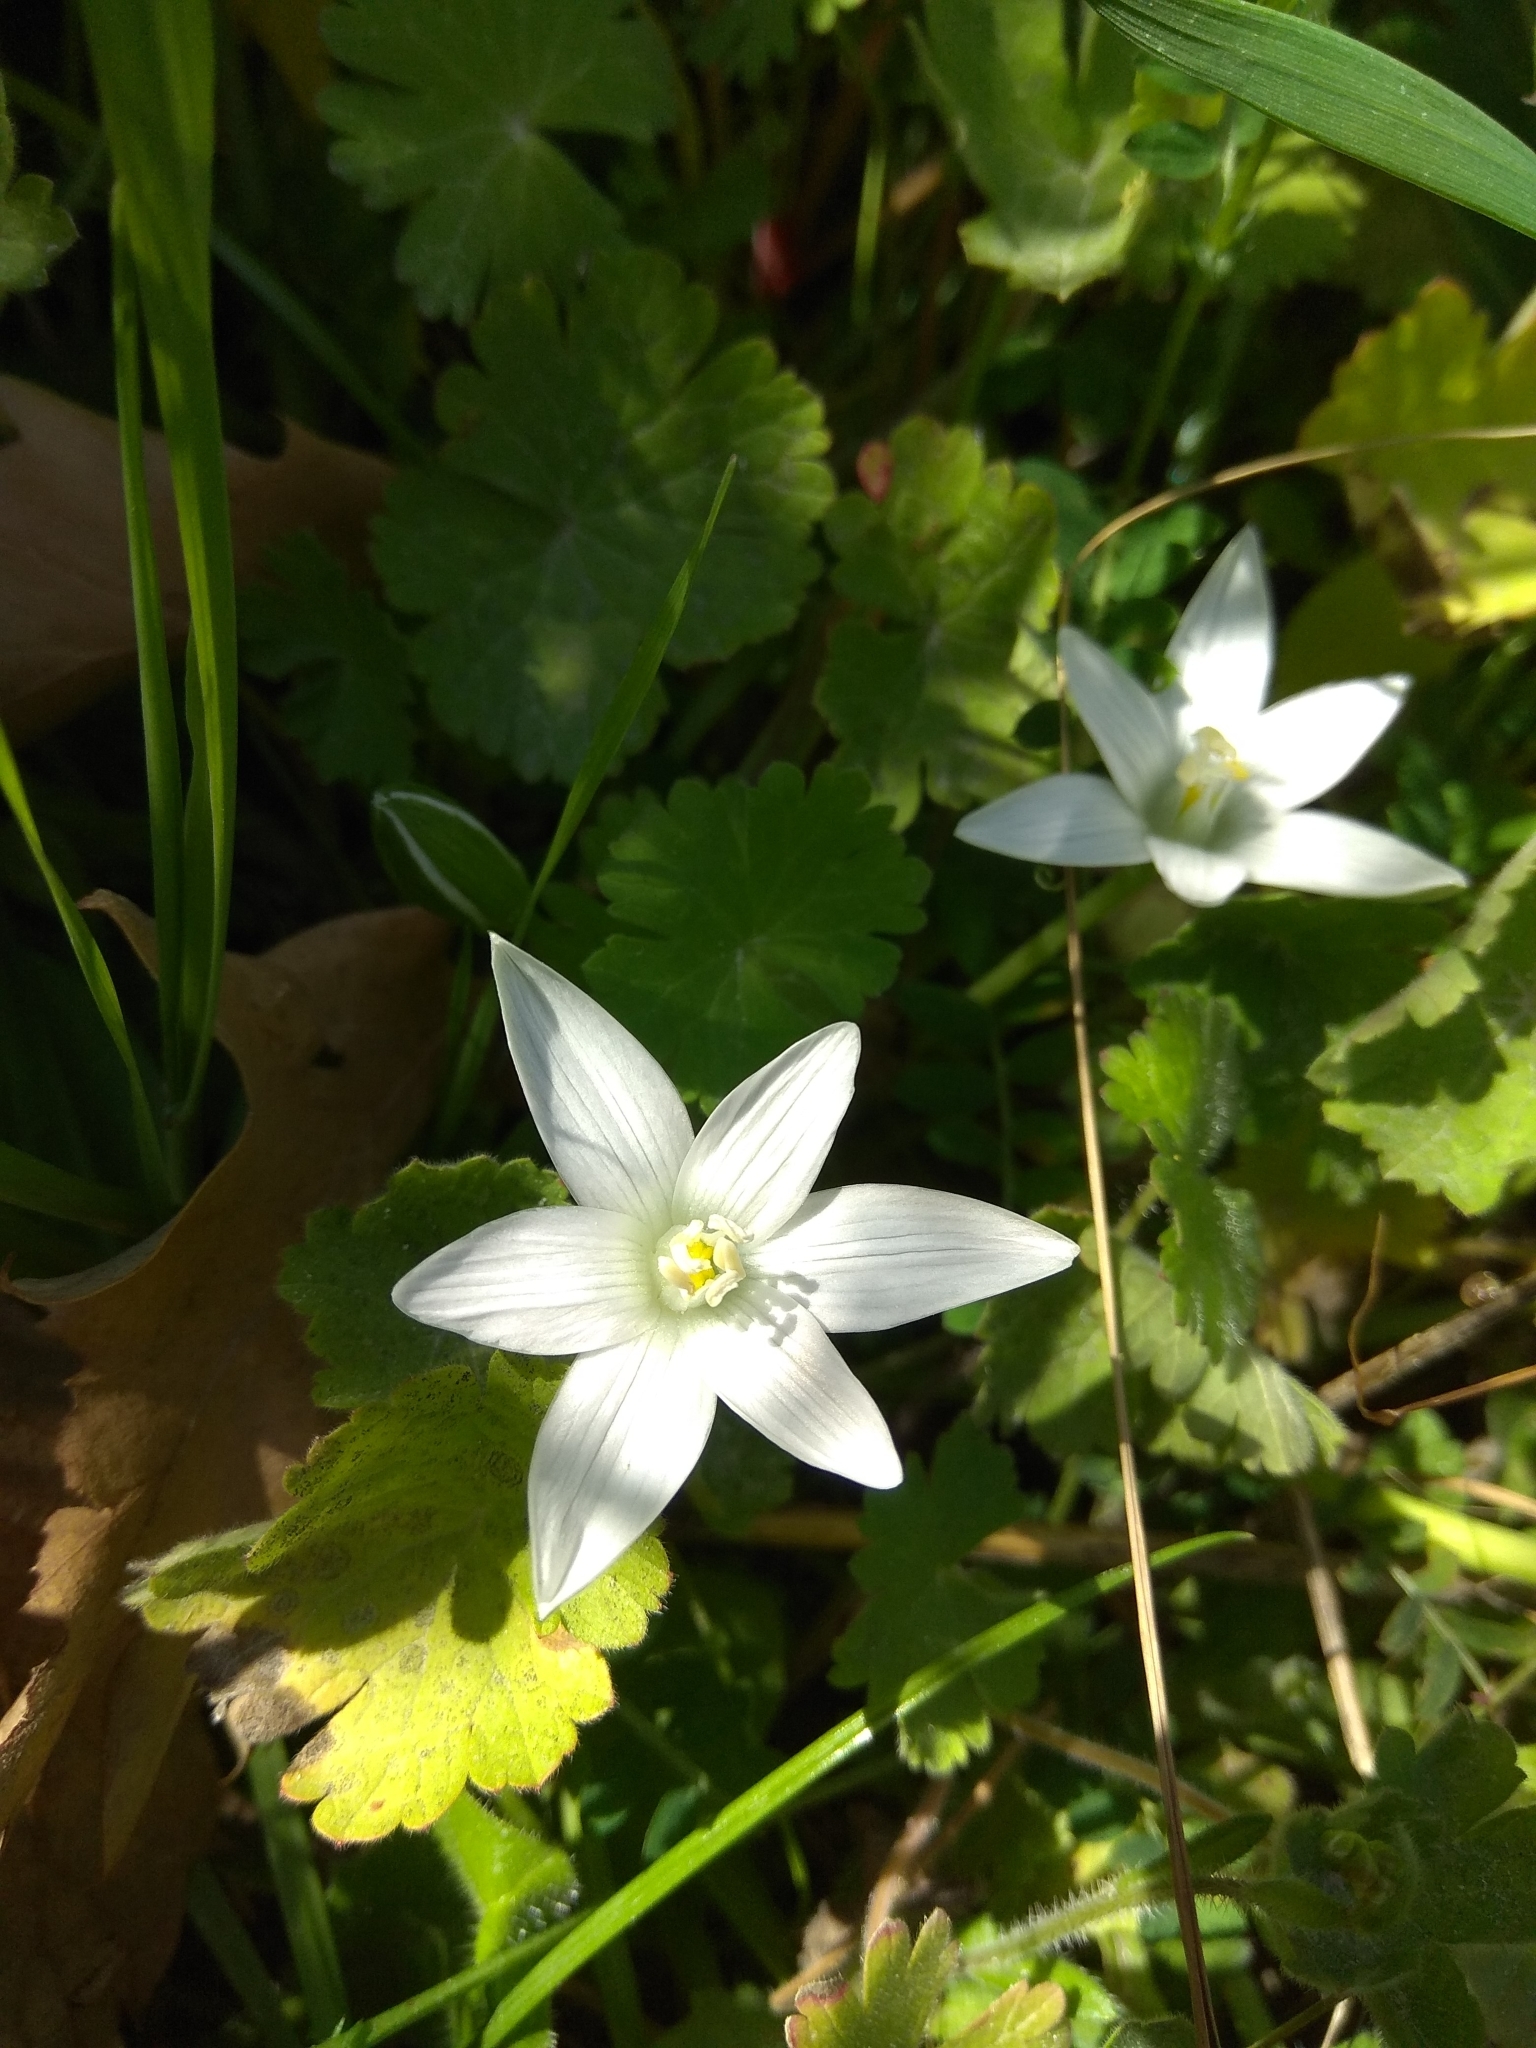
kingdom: Plantae
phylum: Tracheophyta
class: Liliopsida
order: Asparagales
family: Asparagaceae
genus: Ornithogalum
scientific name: Ornithogalum umbellatum
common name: Garden star-of-bethlehem
